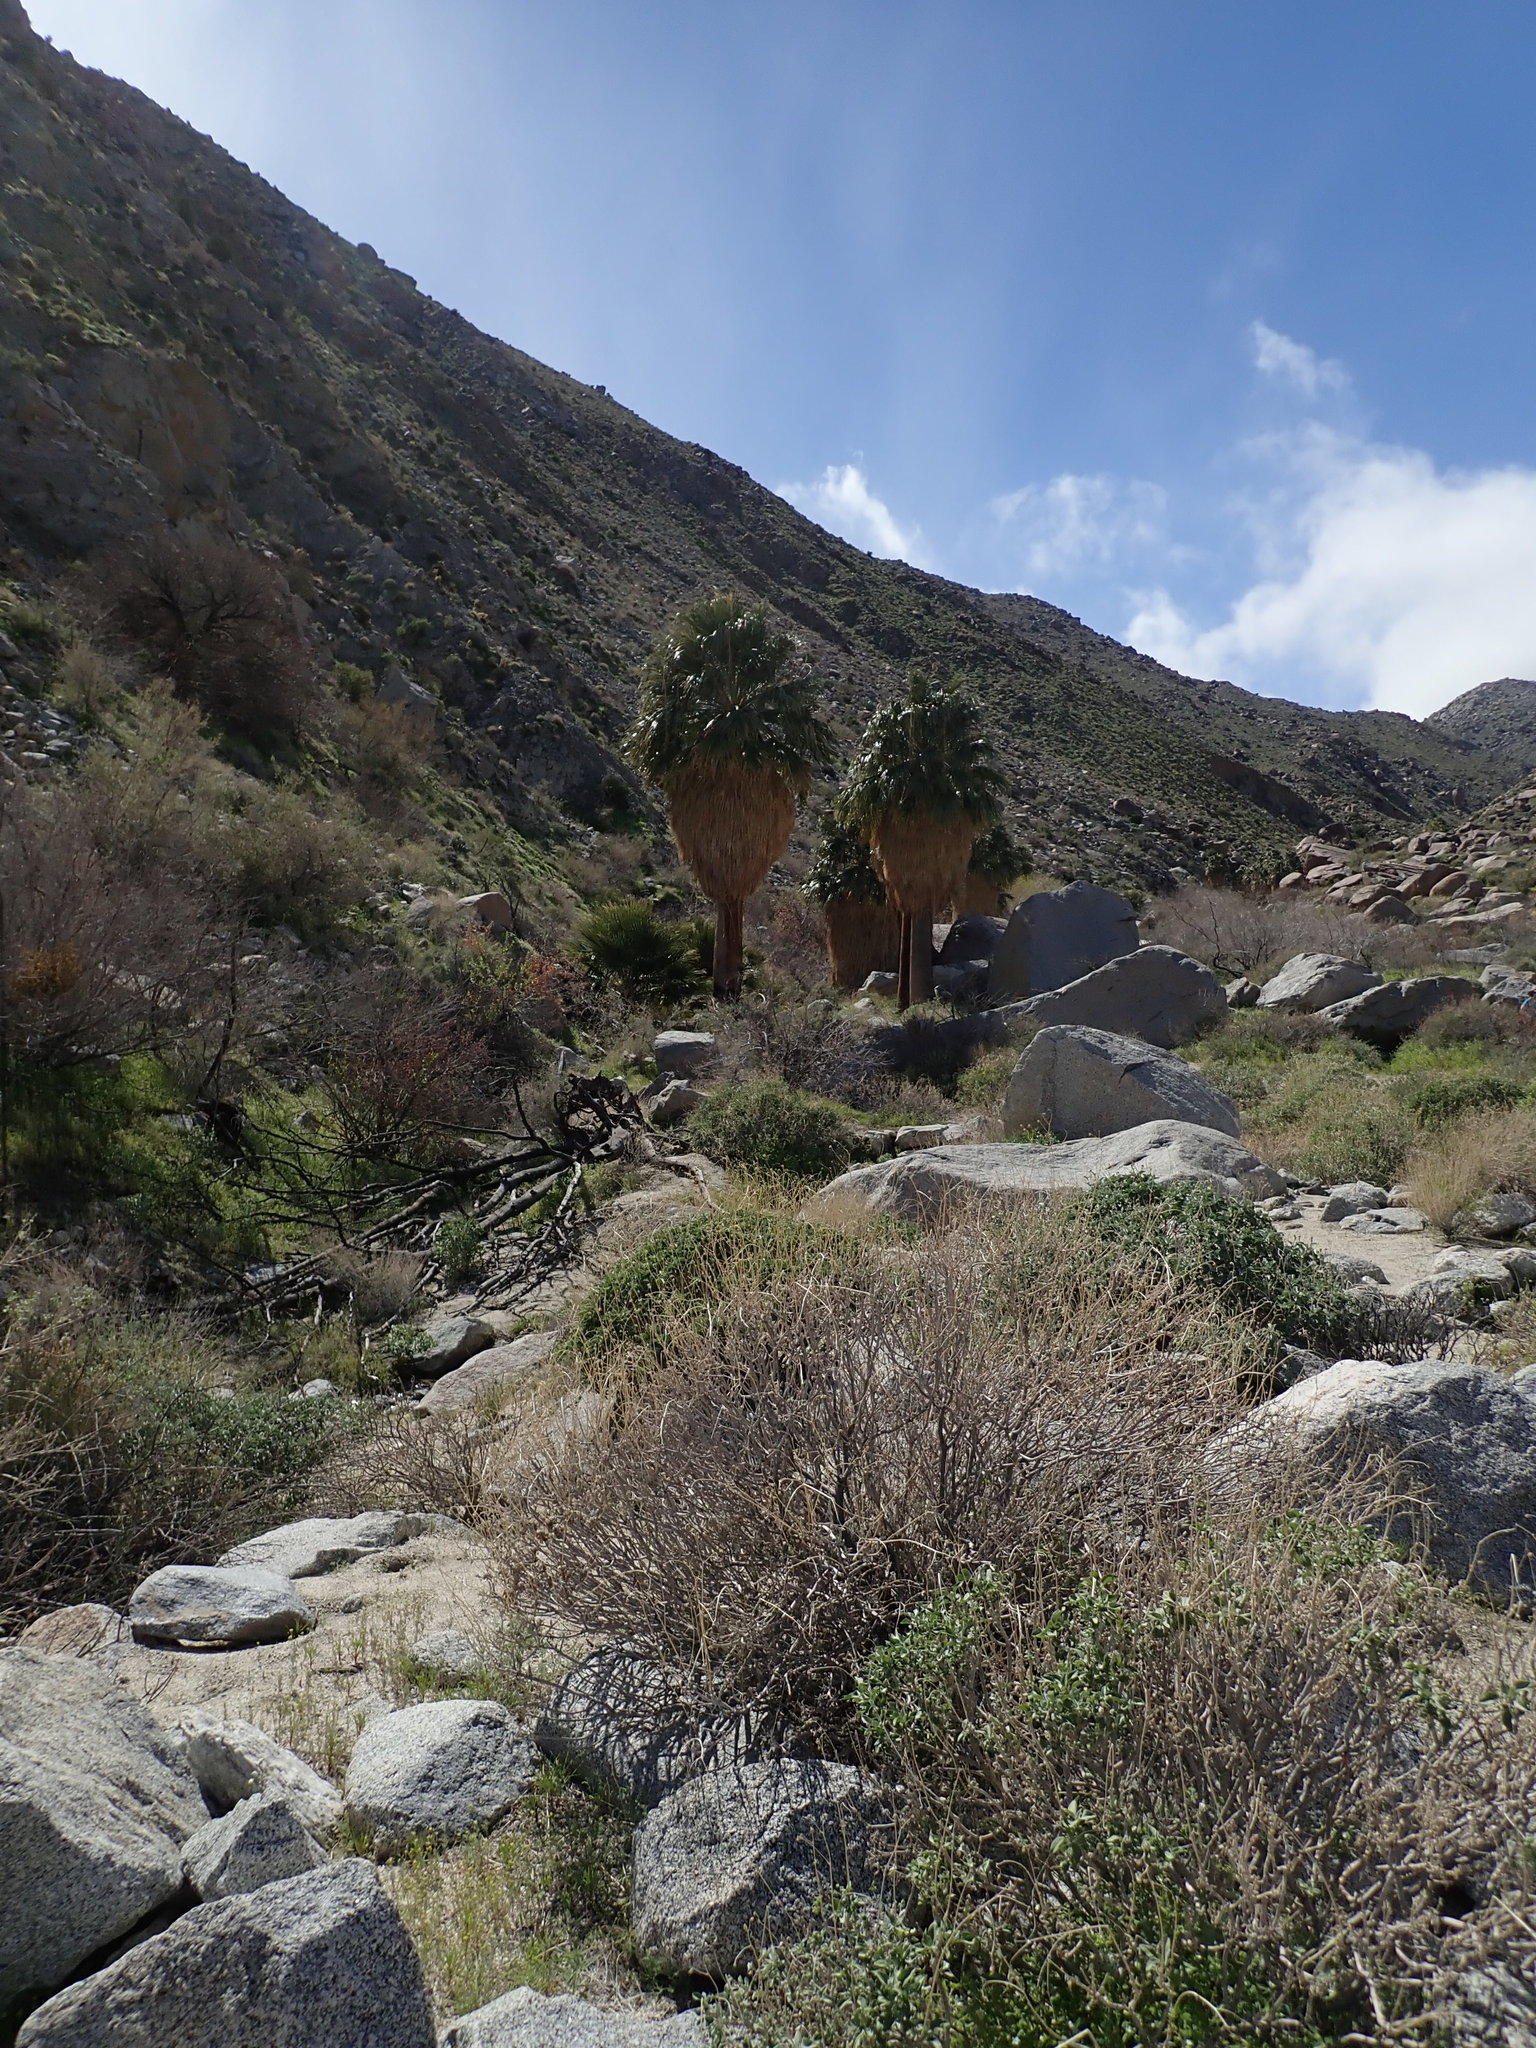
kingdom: Plantae
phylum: Tracheophyta
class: Liliopsida
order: Arecales
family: Arecaceae
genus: Washingtonia
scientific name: Washingtonia filifera
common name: California fan palm
